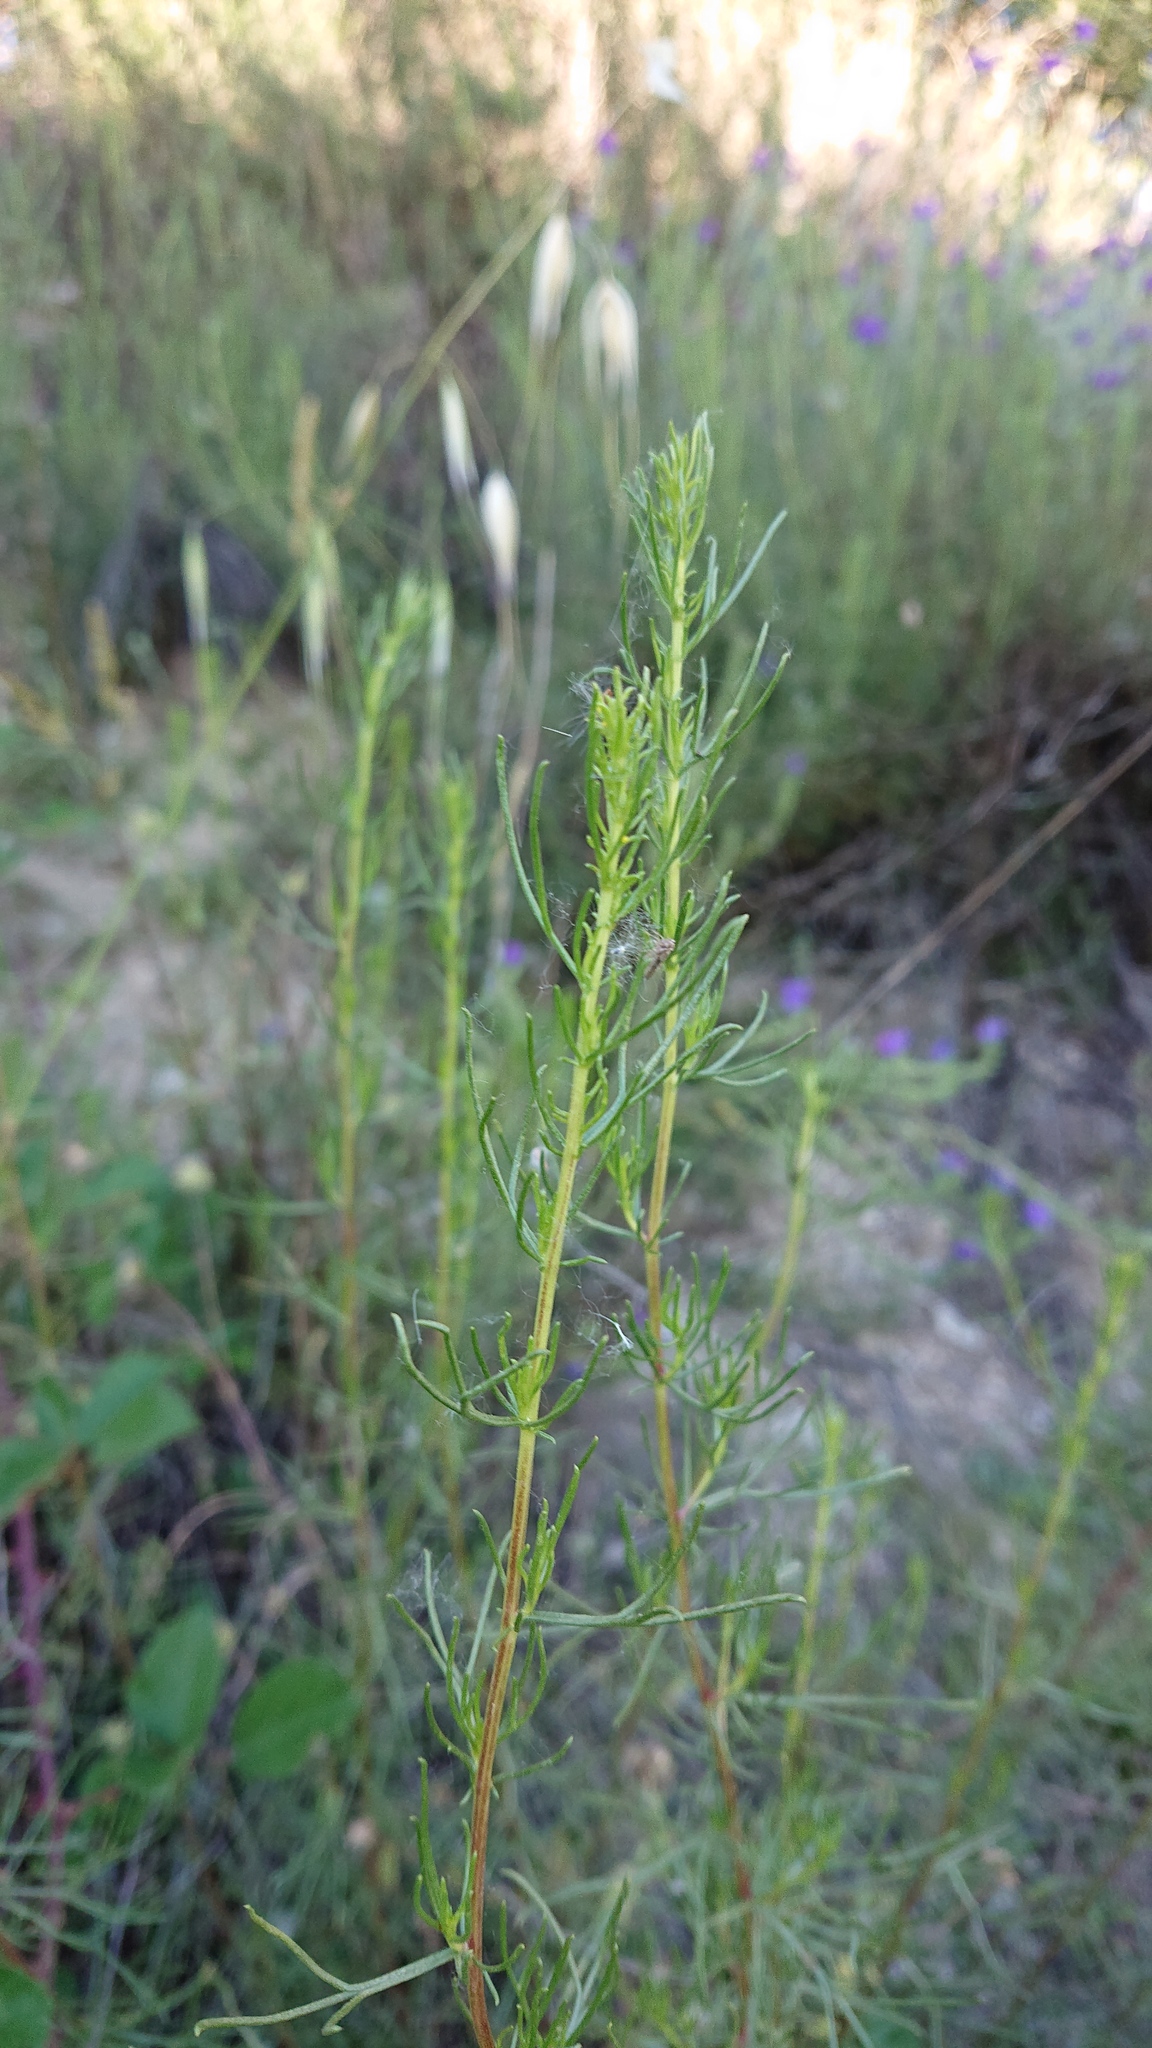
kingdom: Plantae
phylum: Tracheophyta
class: Magnoliopsida
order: Asterales
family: Asteraceae
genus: Artemisia
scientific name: Artemisia campestris
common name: Field wormwood
